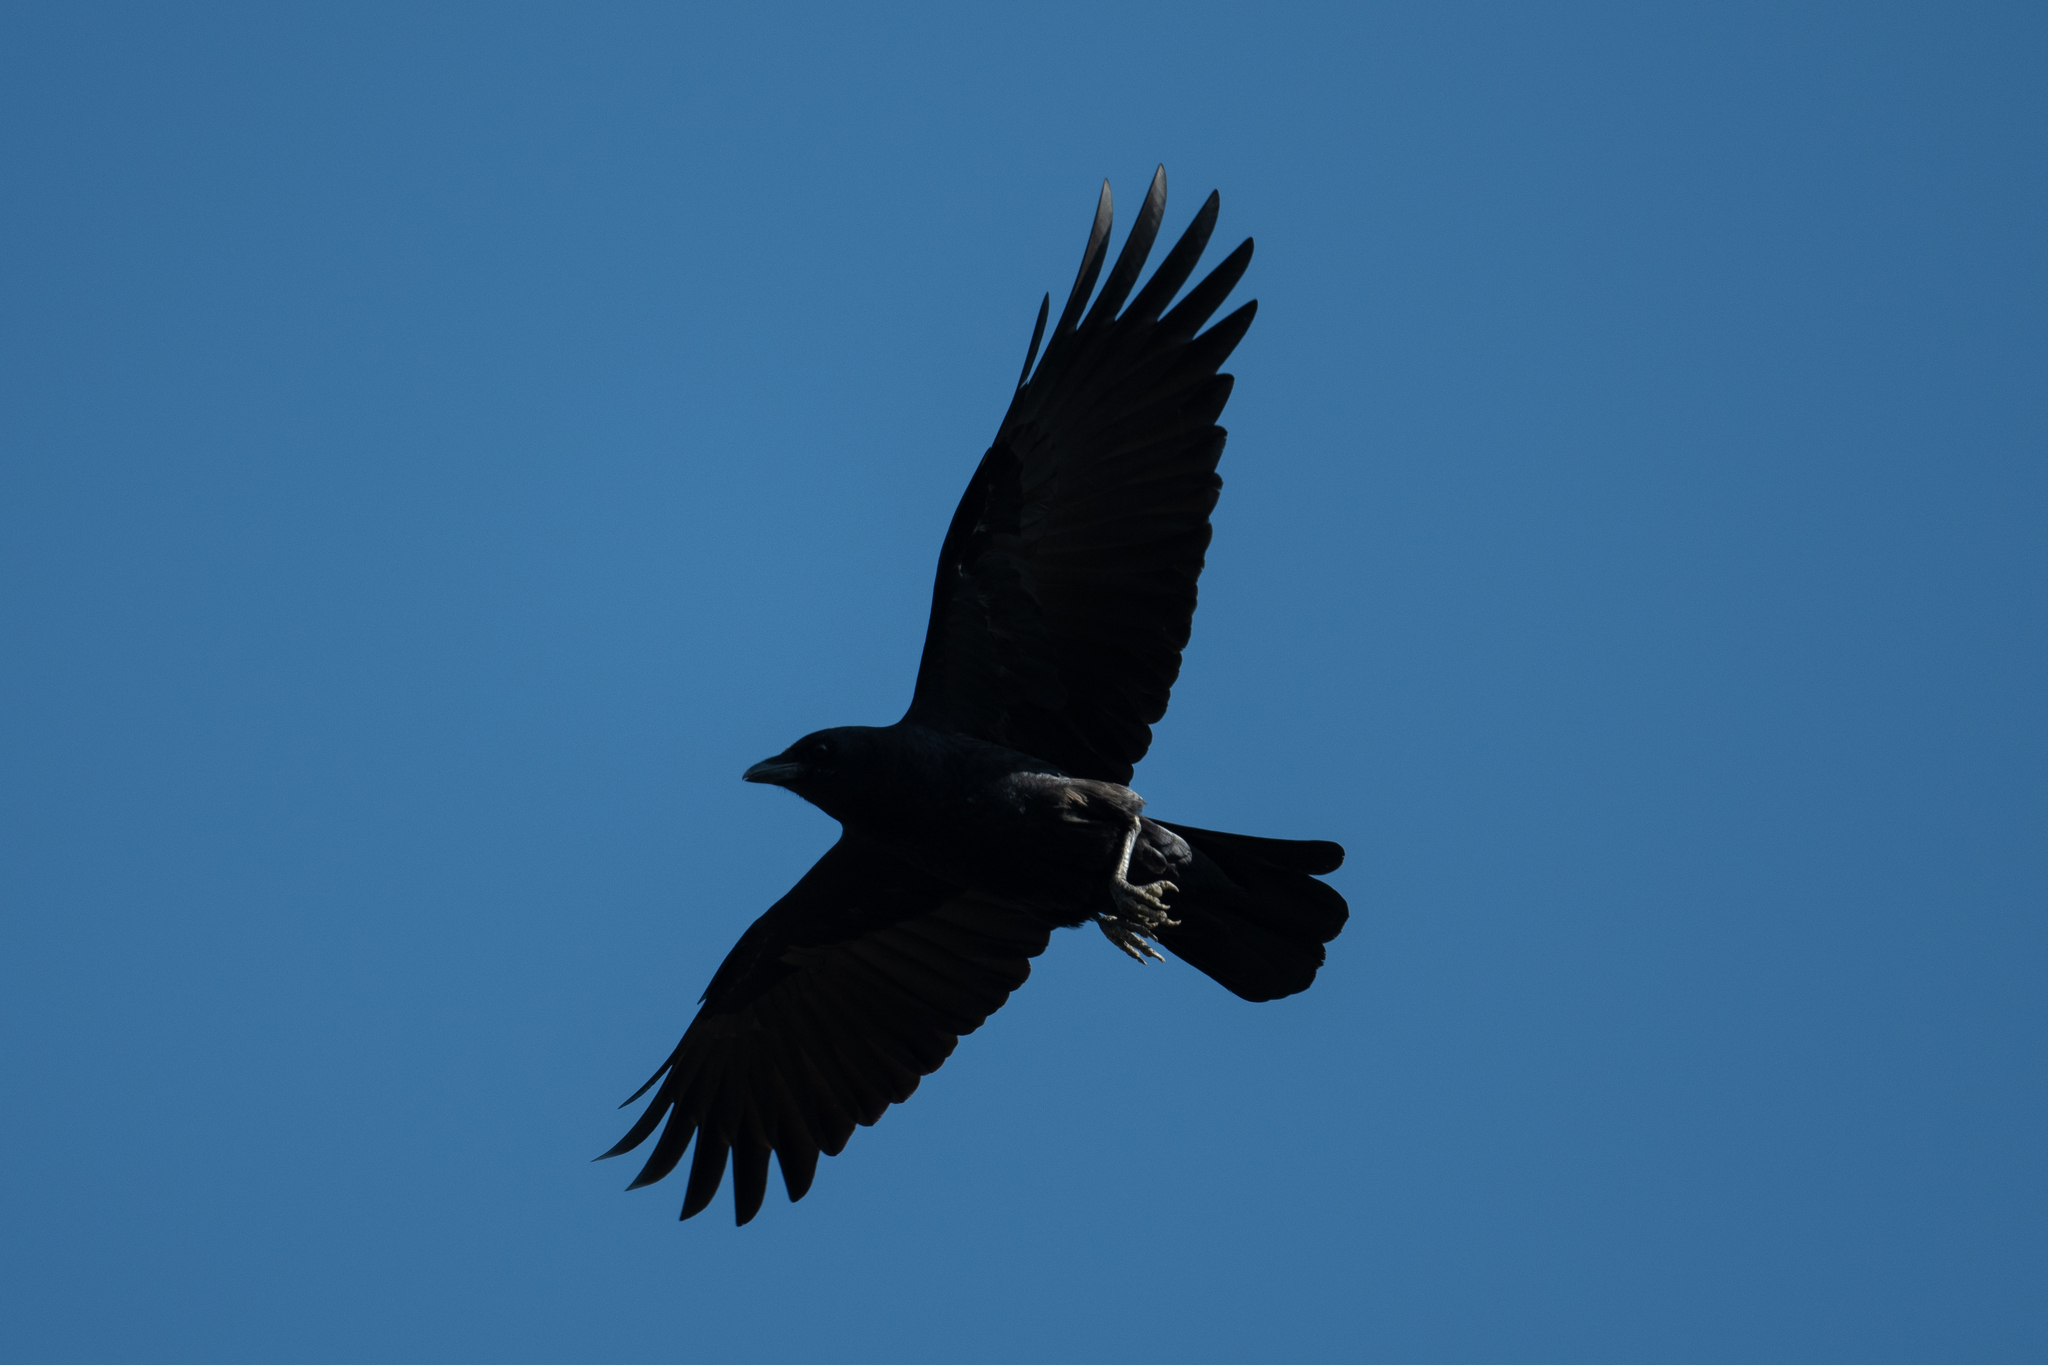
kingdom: Animalia
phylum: Chordata
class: Aves
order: Passeriformes
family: Corvidae
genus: Corvus
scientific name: Corvus brachyrhynchos
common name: American crow
